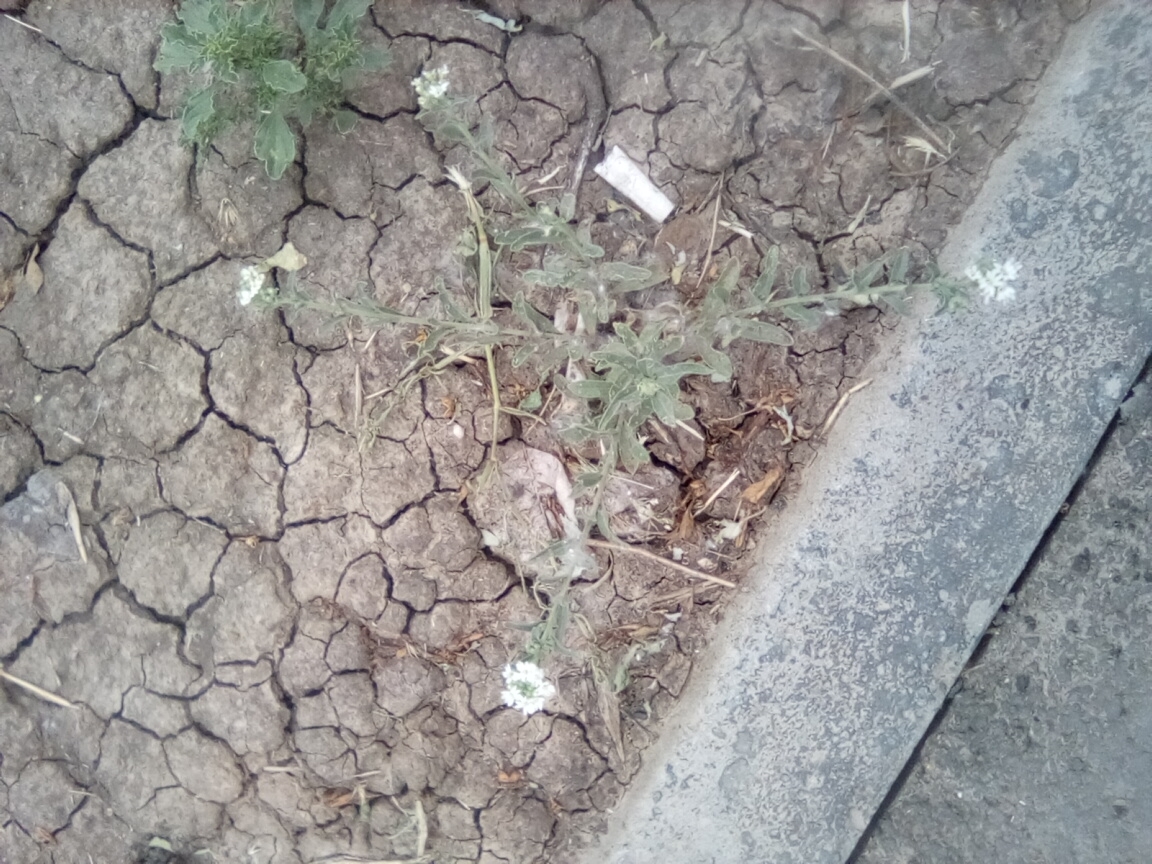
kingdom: Plantae
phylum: Tracheophyta
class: Magnoliopsida
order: Brassicales
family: Brassicaceae
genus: Berteroa
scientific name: Berteroa incana
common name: Hoary alison
